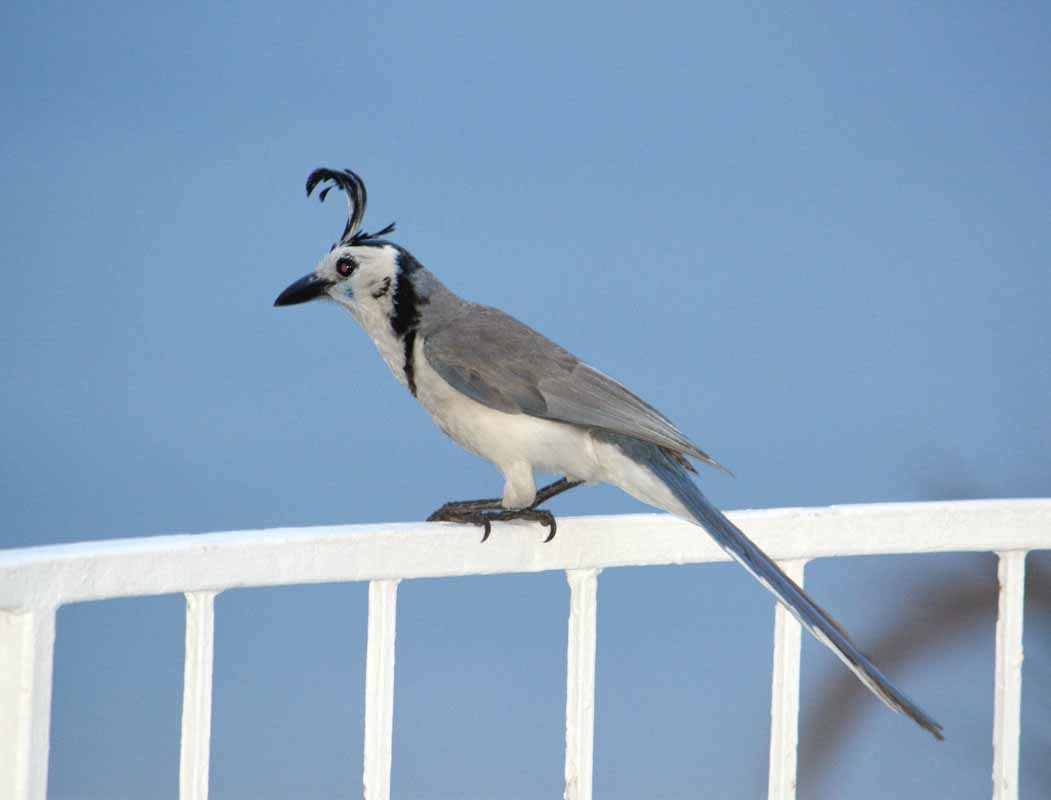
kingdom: Animalia
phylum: Chordata
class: Aves
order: Passeriformes
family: Corvidae
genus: Calocitta
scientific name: Calocitta formosa
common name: White-throated magpie-jay
